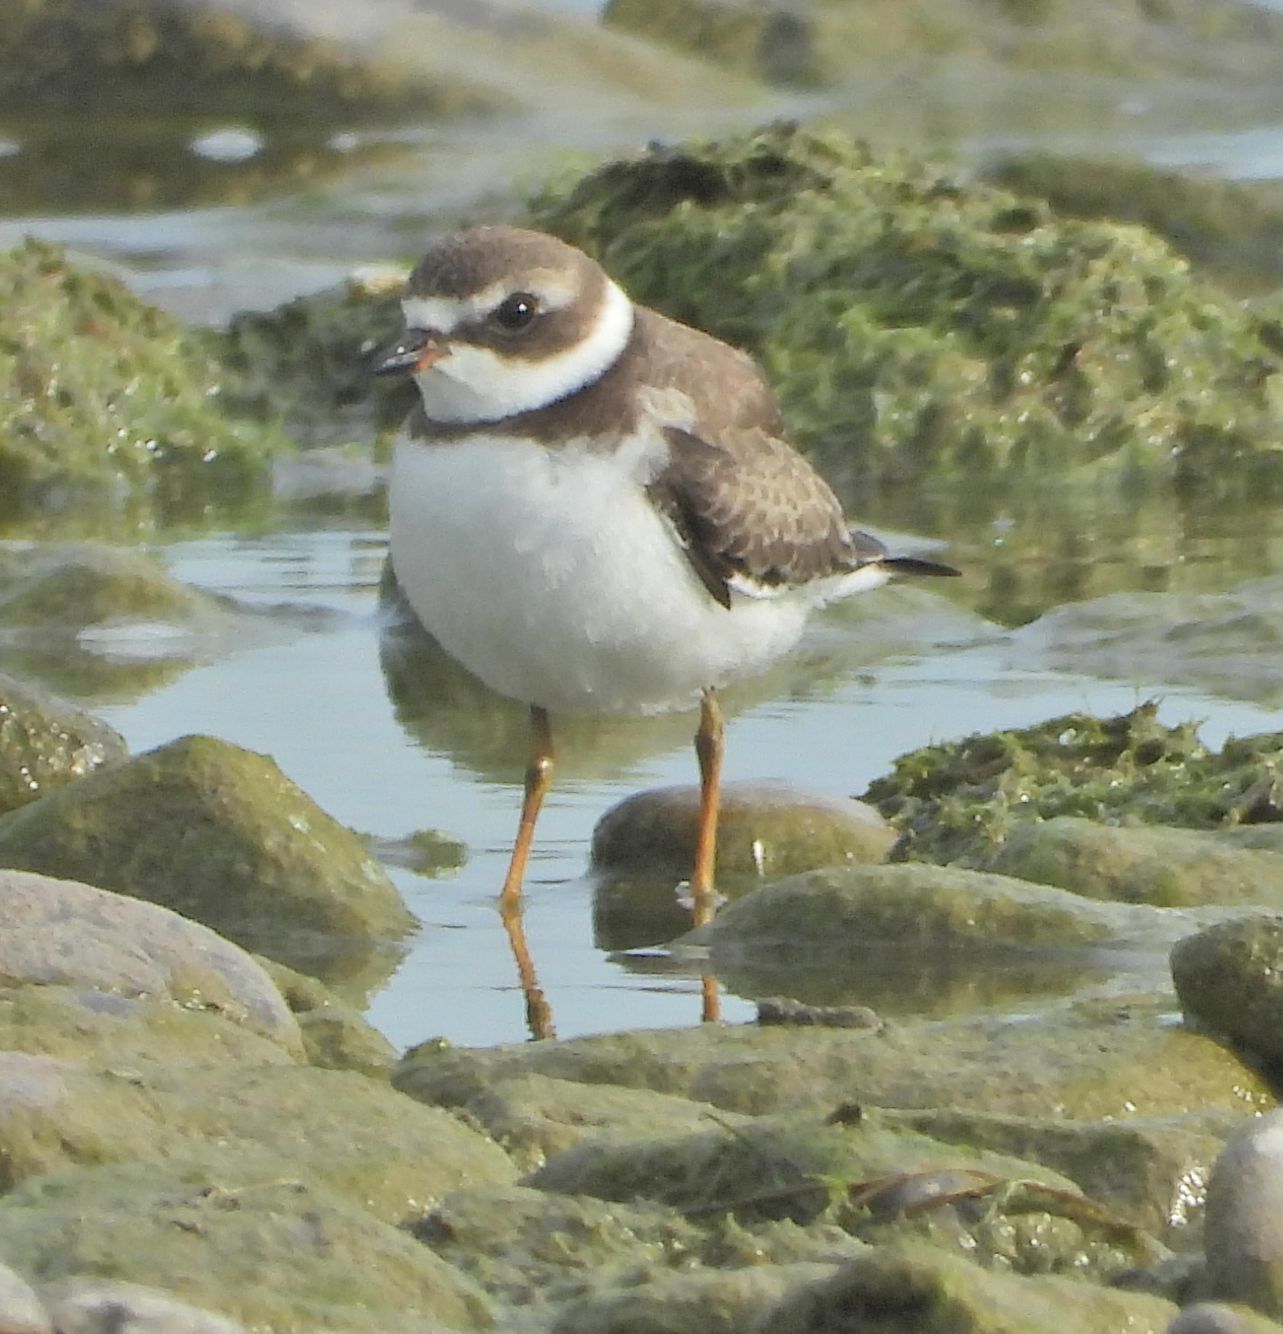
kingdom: Animalia
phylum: Chordata
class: Aves
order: Charadriiformes
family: Charadriidae
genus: Charadrius
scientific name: Charadrius semipalmatus
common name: Semipalmated plover
